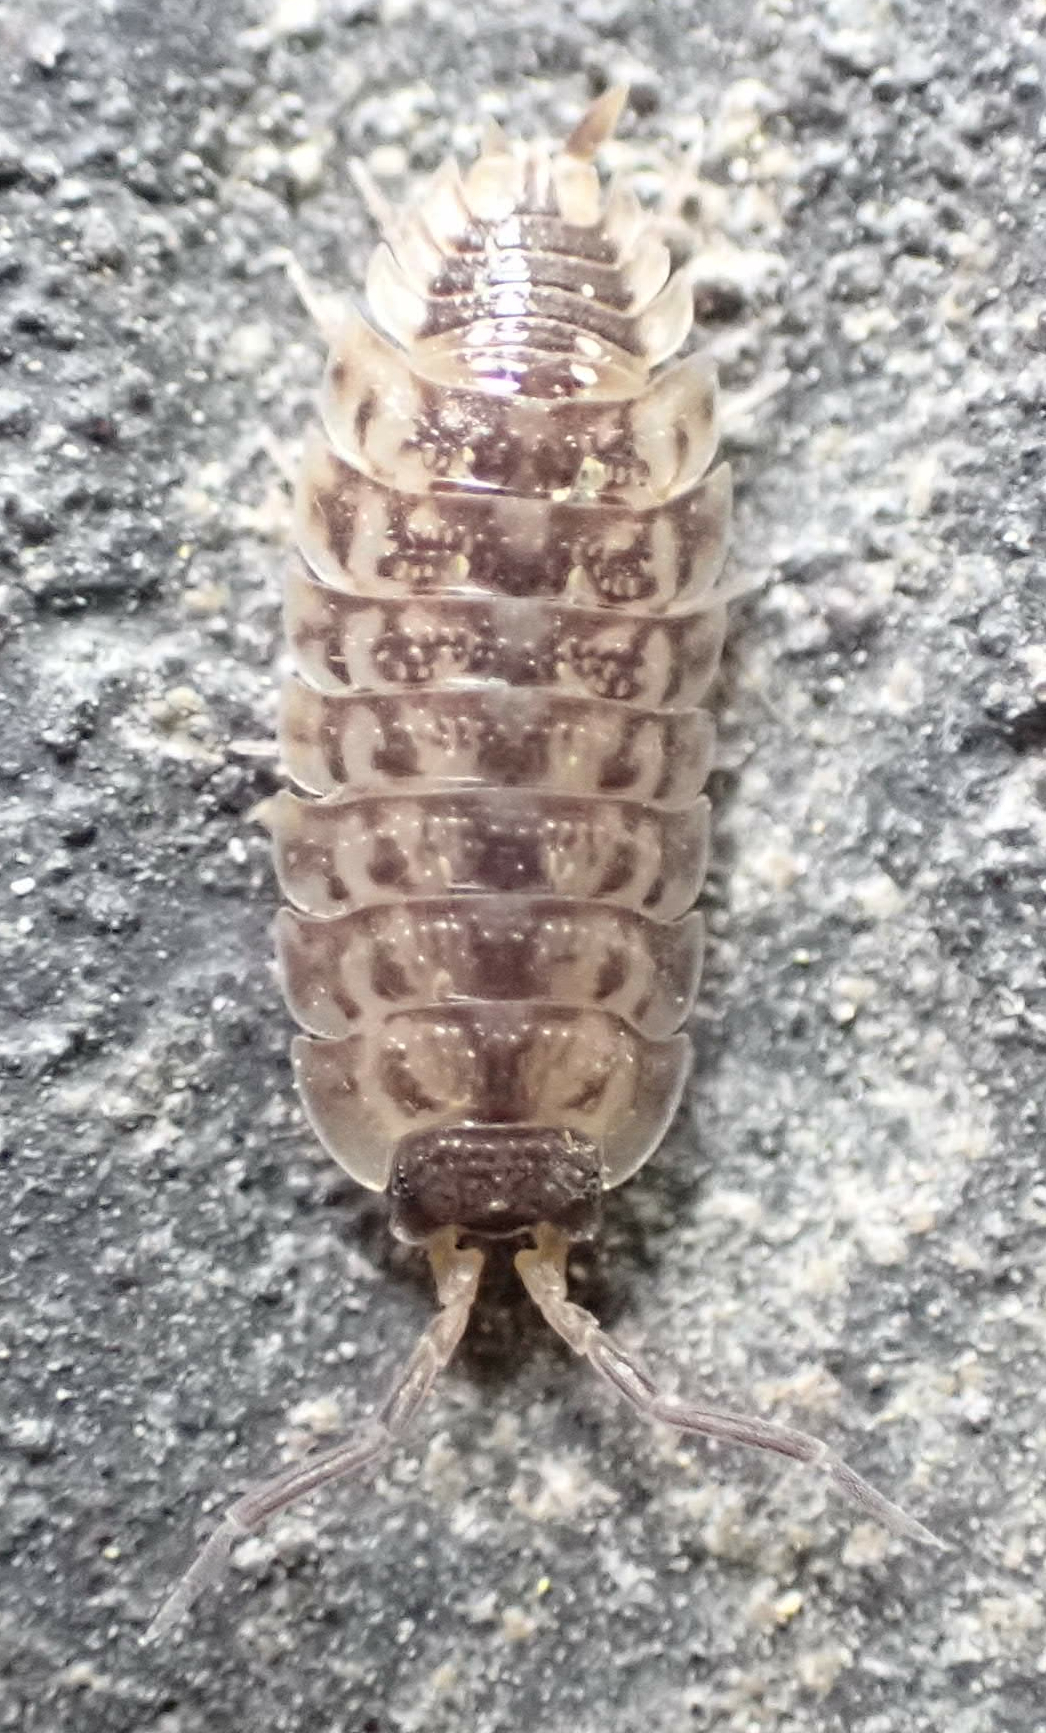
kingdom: Animalia
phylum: Arthropoda
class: Malacostraca
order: Isopoda
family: Porcellionidae
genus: Porcellio
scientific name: Porcellio spinicornis
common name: Painted woodlouse
